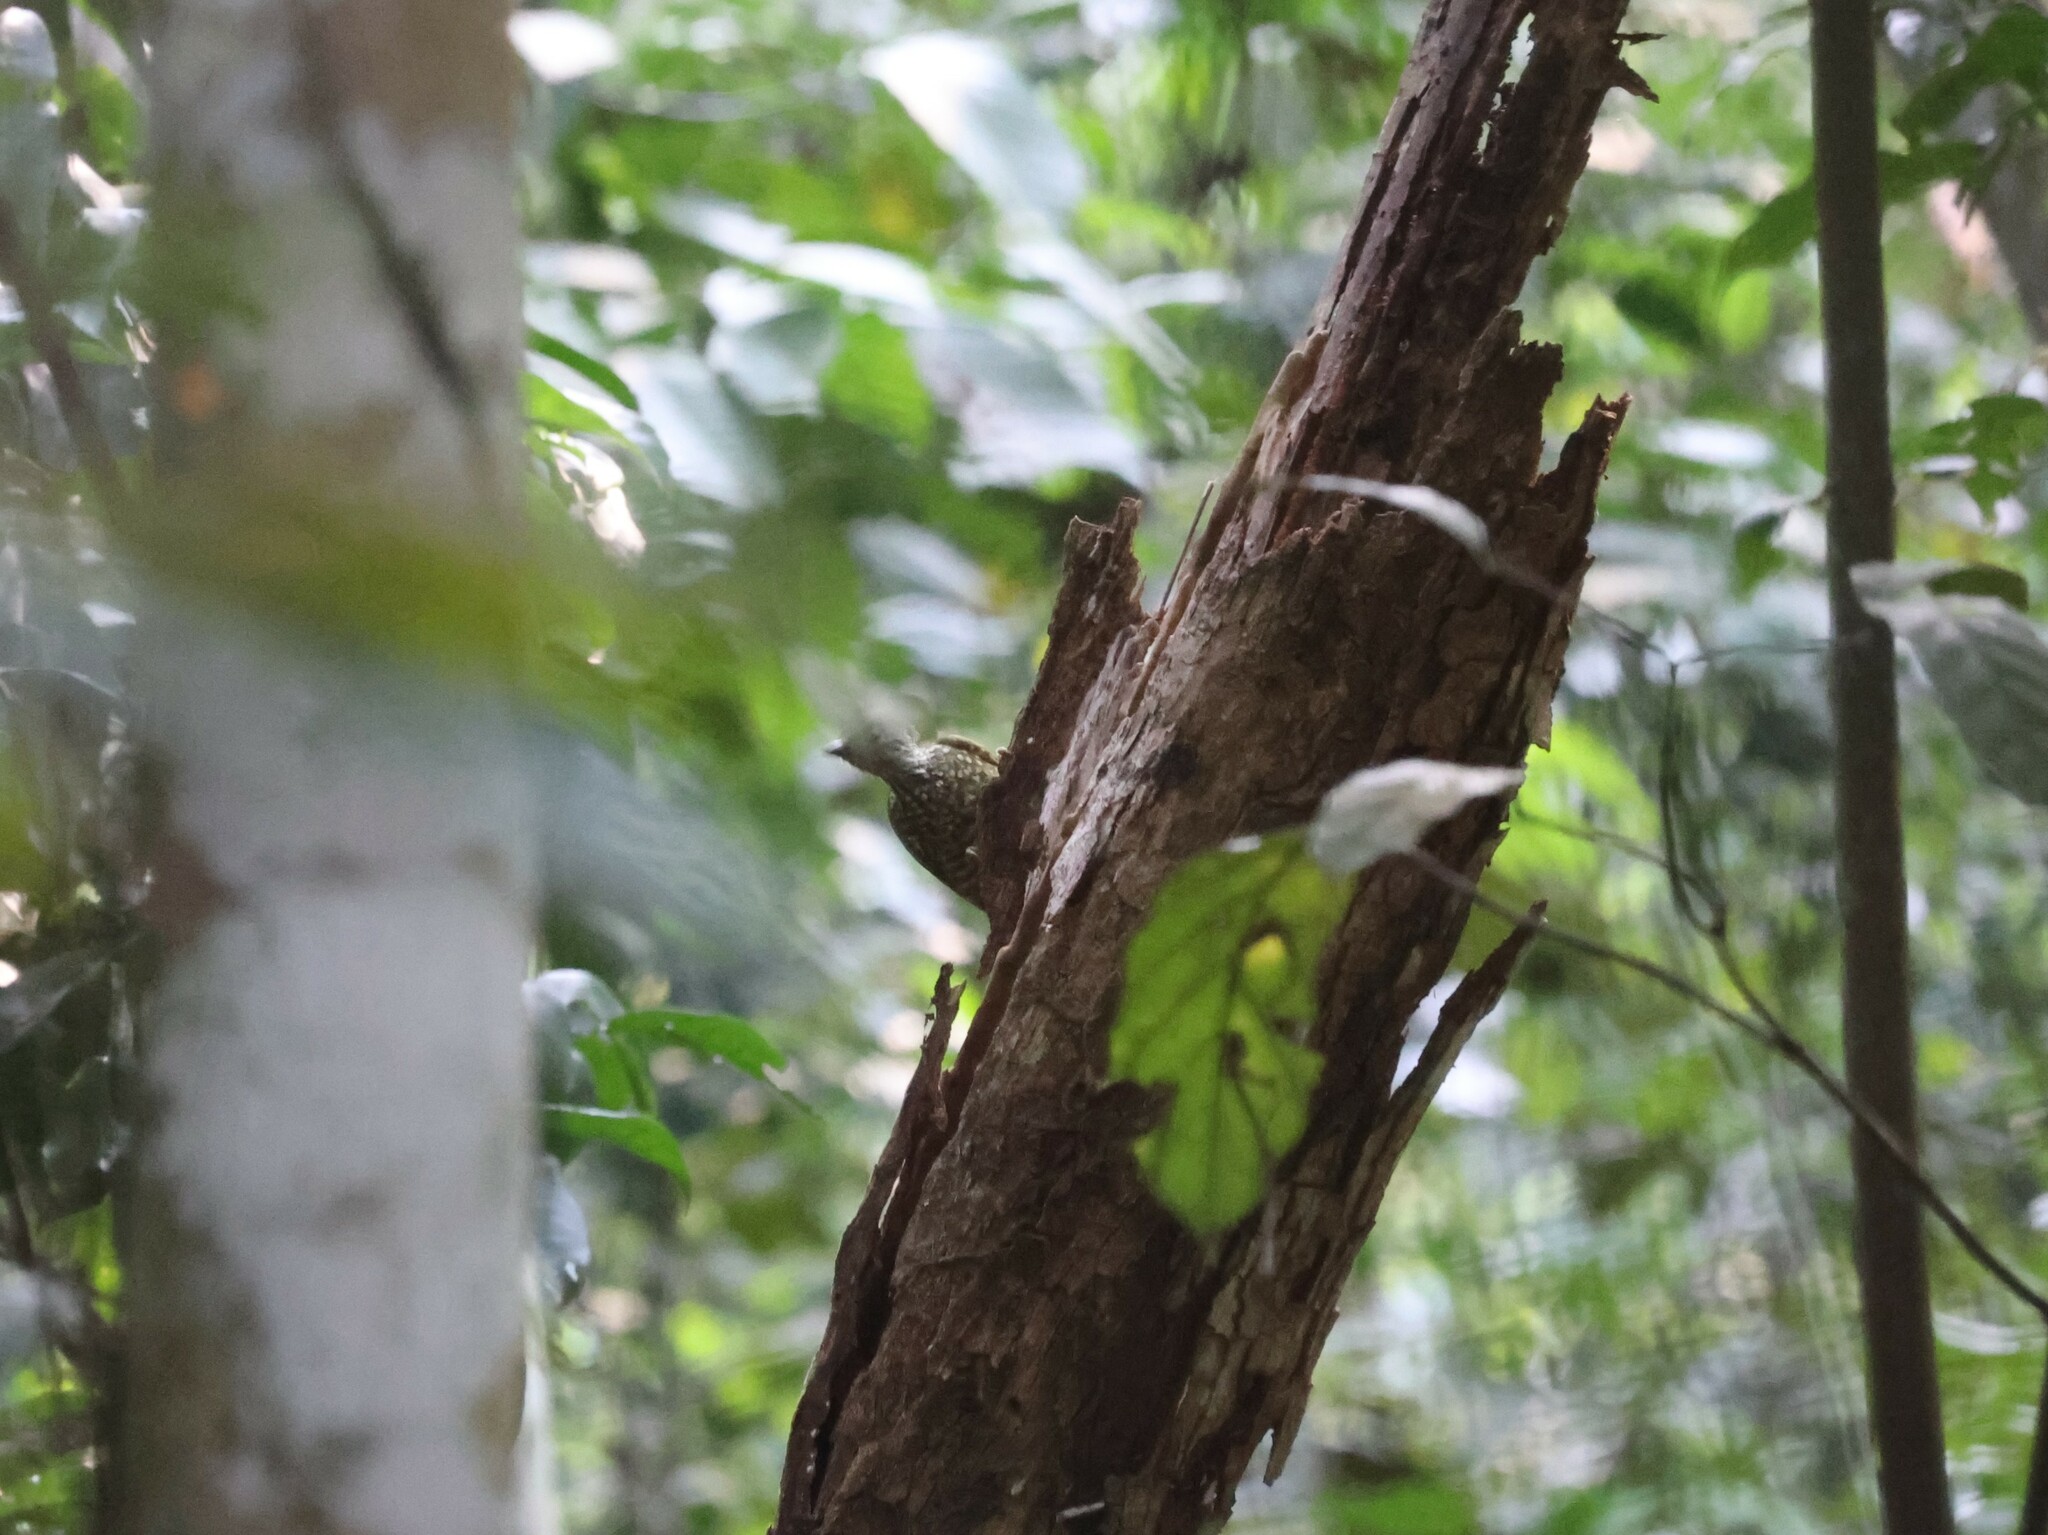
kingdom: Animalia
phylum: Chordata
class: Aves
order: Piciformes
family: Picidae
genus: Pardipicus
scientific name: Pardipicus nivosus
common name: Buff-spotted woodpecker
